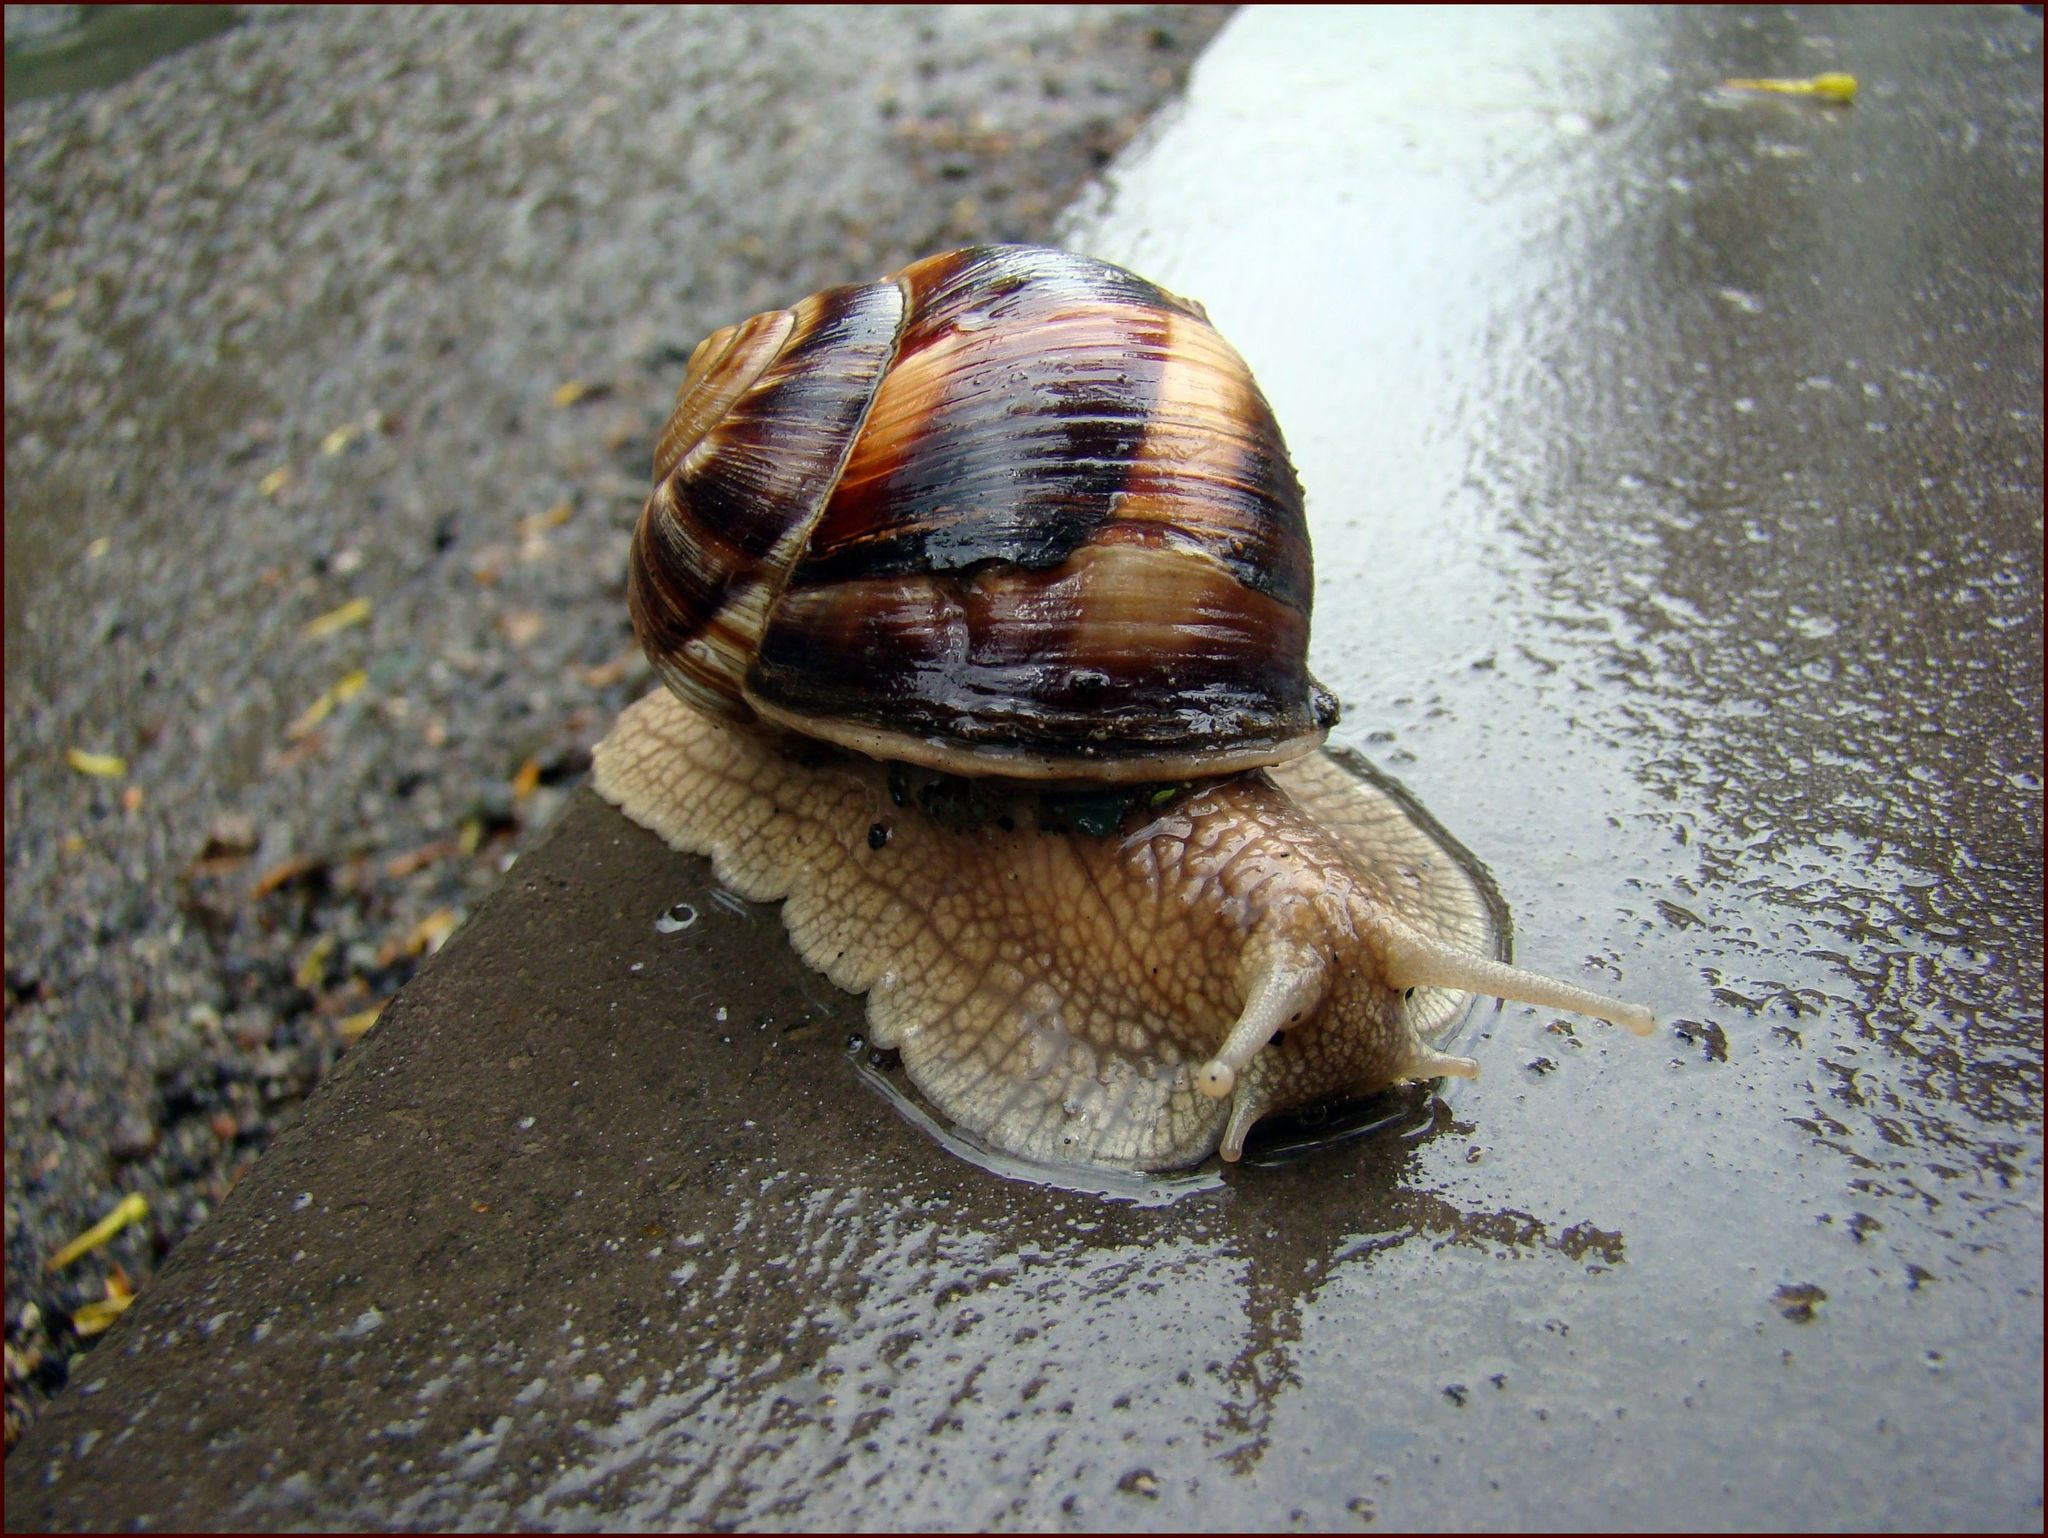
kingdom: Animalia
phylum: Mollusca
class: Gastropoda
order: Stylommatophora
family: Helicidae
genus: Helix
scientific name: Helix lucorum
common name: Turkish snail
